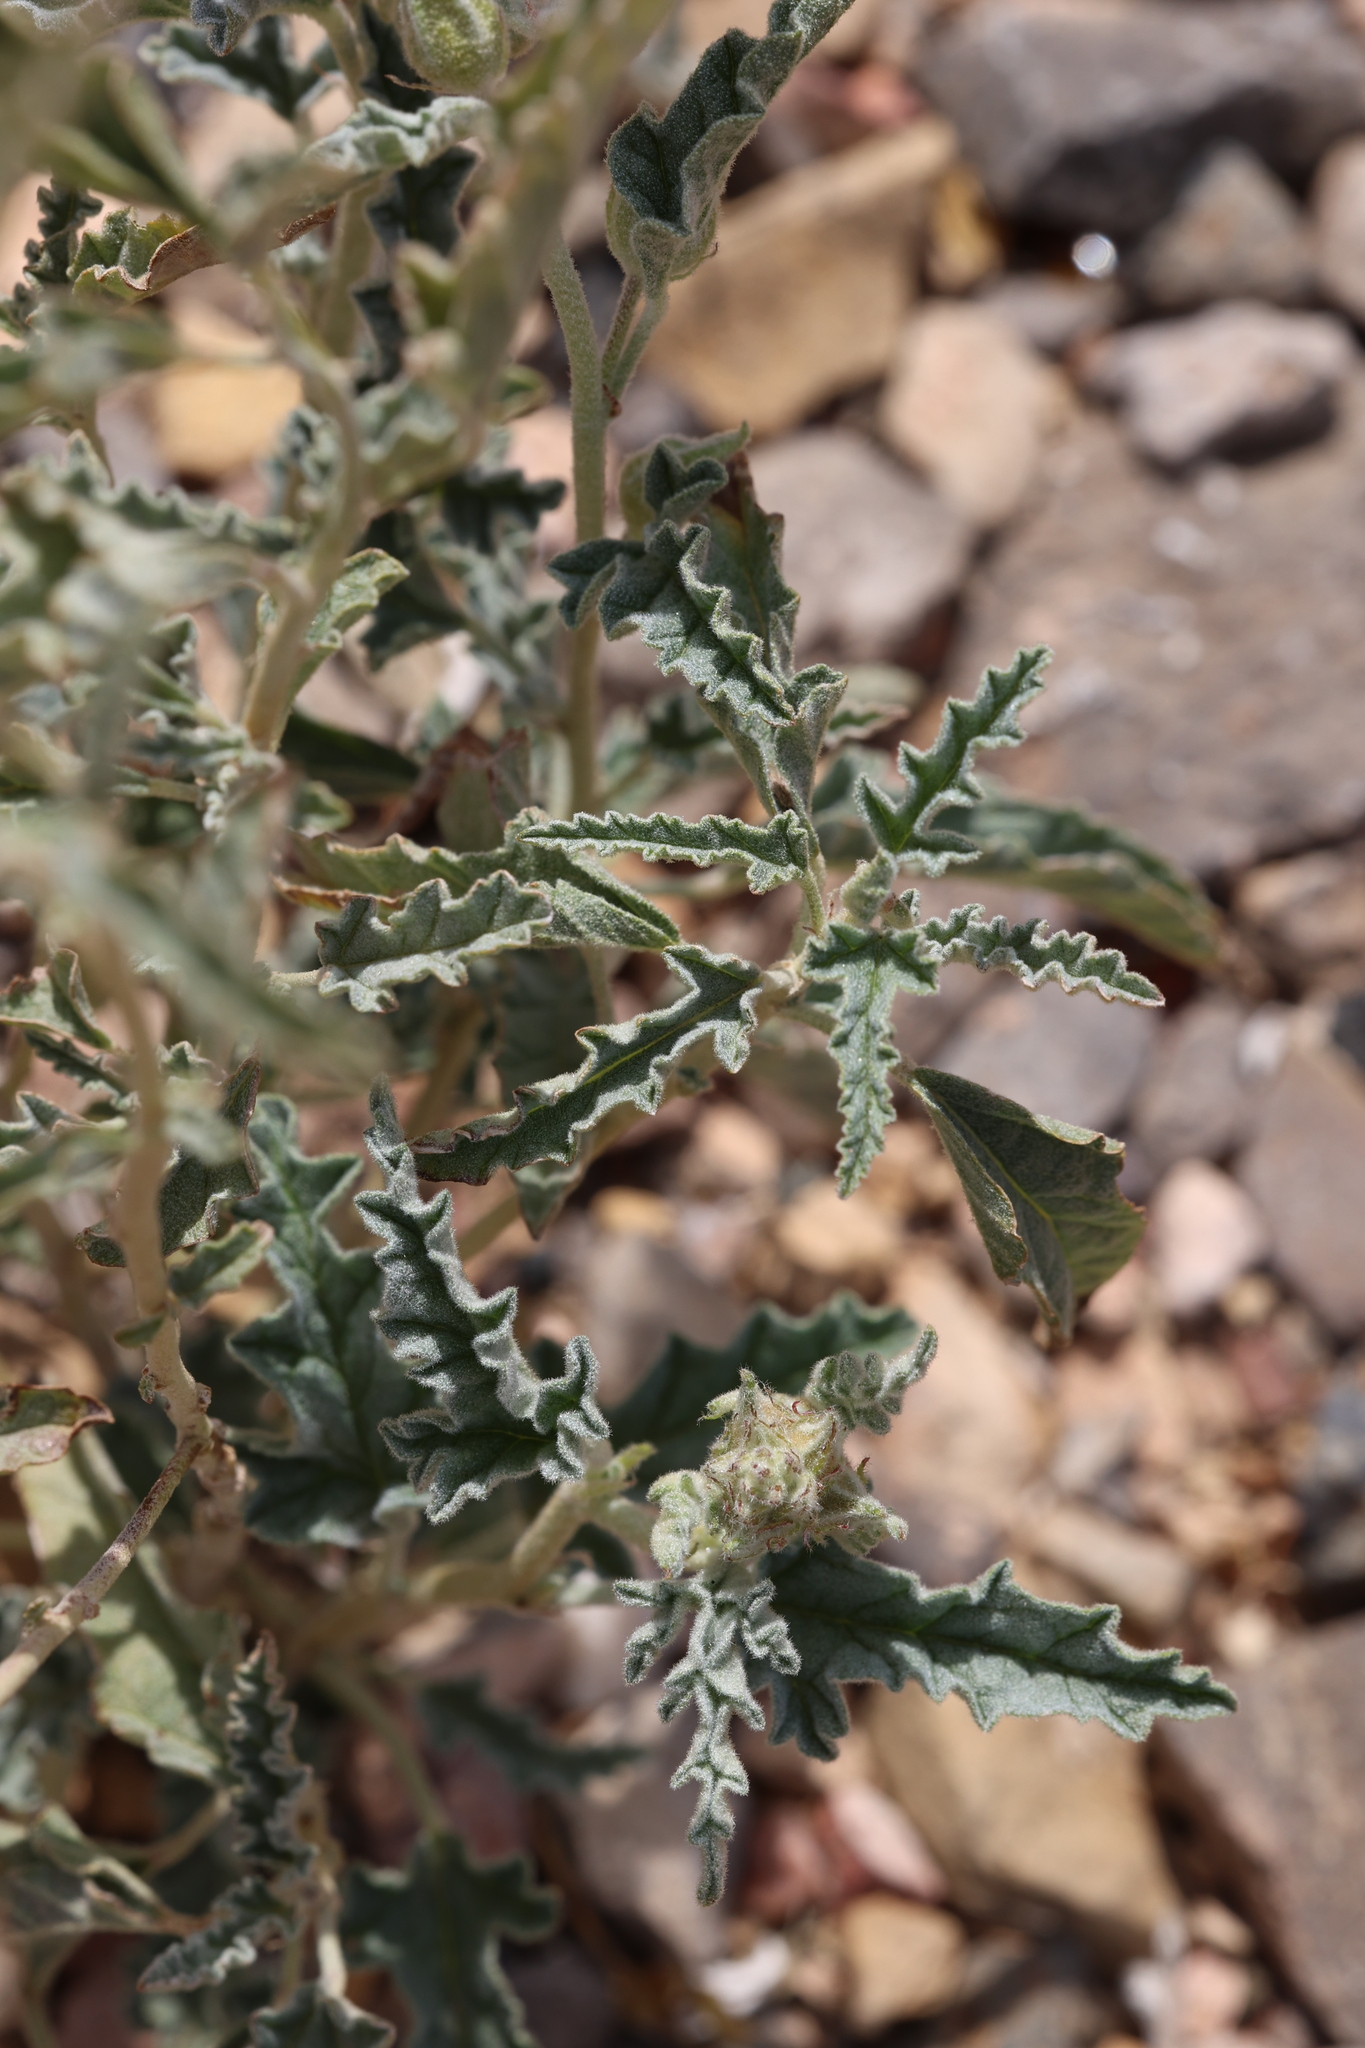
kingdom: Plantae
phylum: Tracheophyta
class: Magnoliopsida
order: Malvales
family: Malvaceae
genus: Sphaeralcea
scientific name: Sphaeralcea hastulata
